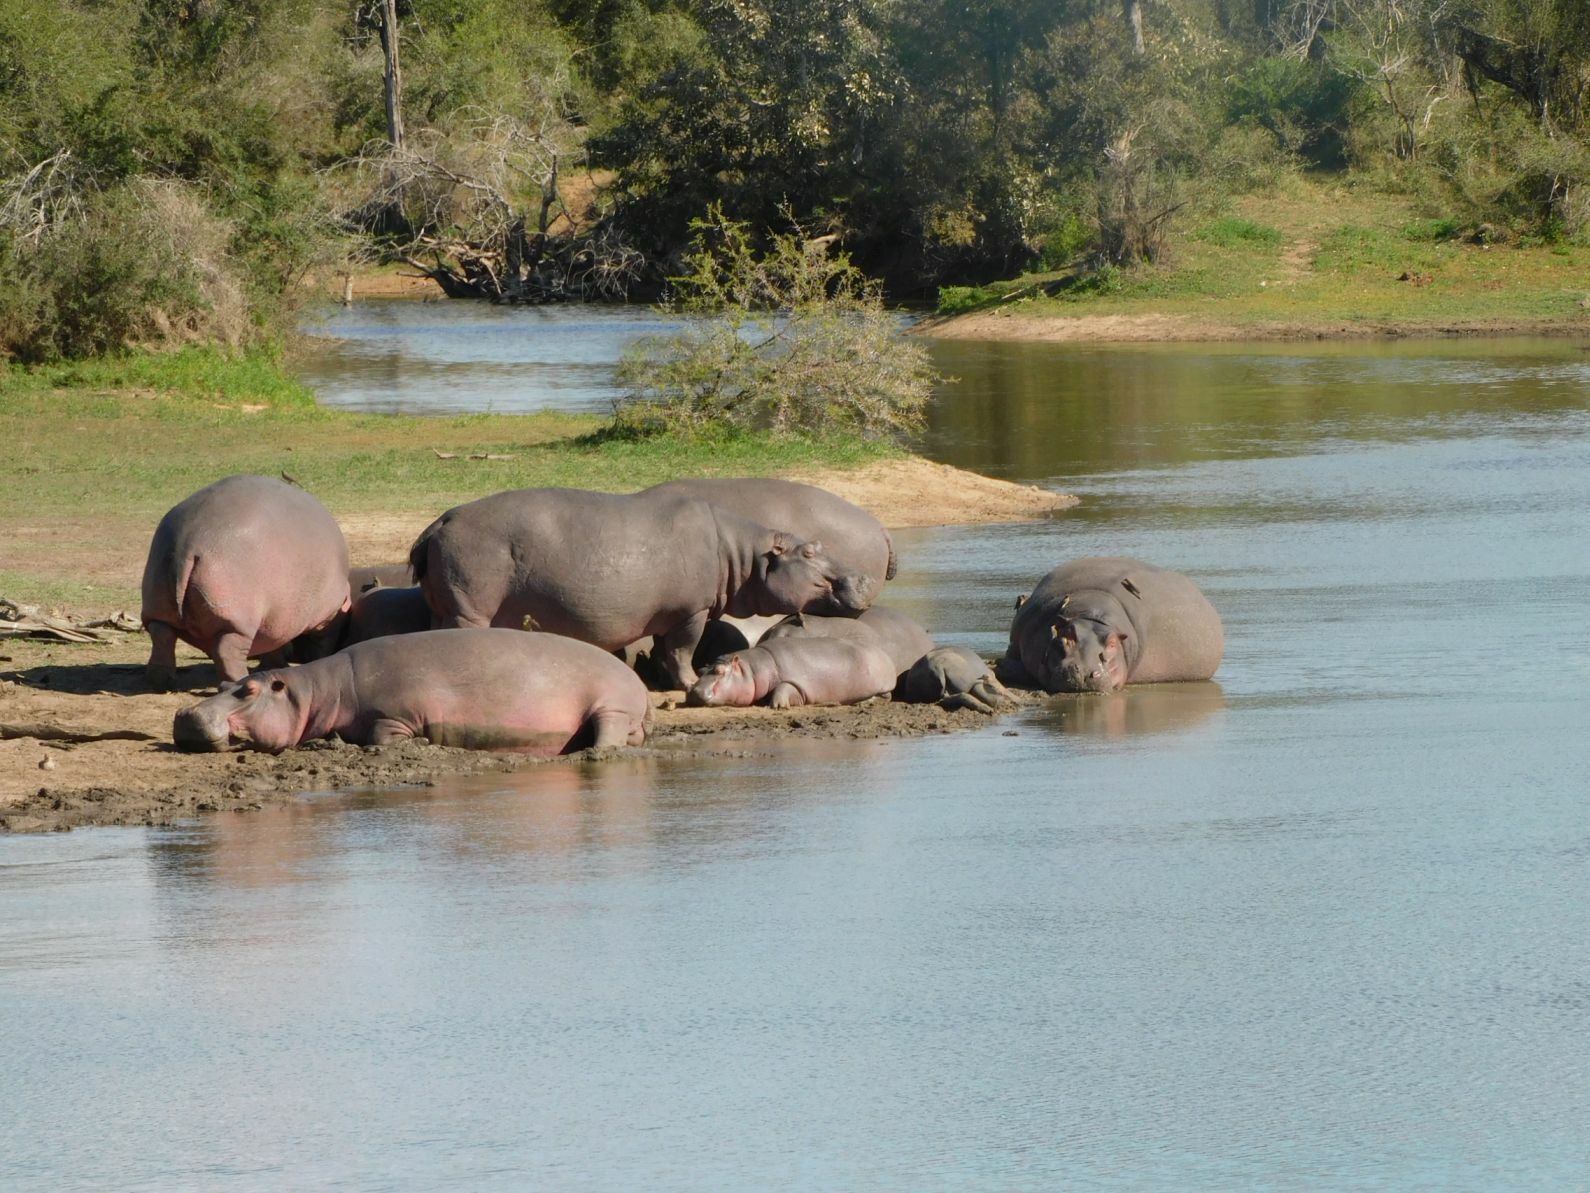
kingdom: Animalia
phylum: Chordata
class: Mammalia
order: Artiodactyla
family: Hippopotamidae
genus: Hippopotamus
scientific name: Hippopotamus amphibius
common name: Common hippopotamus
